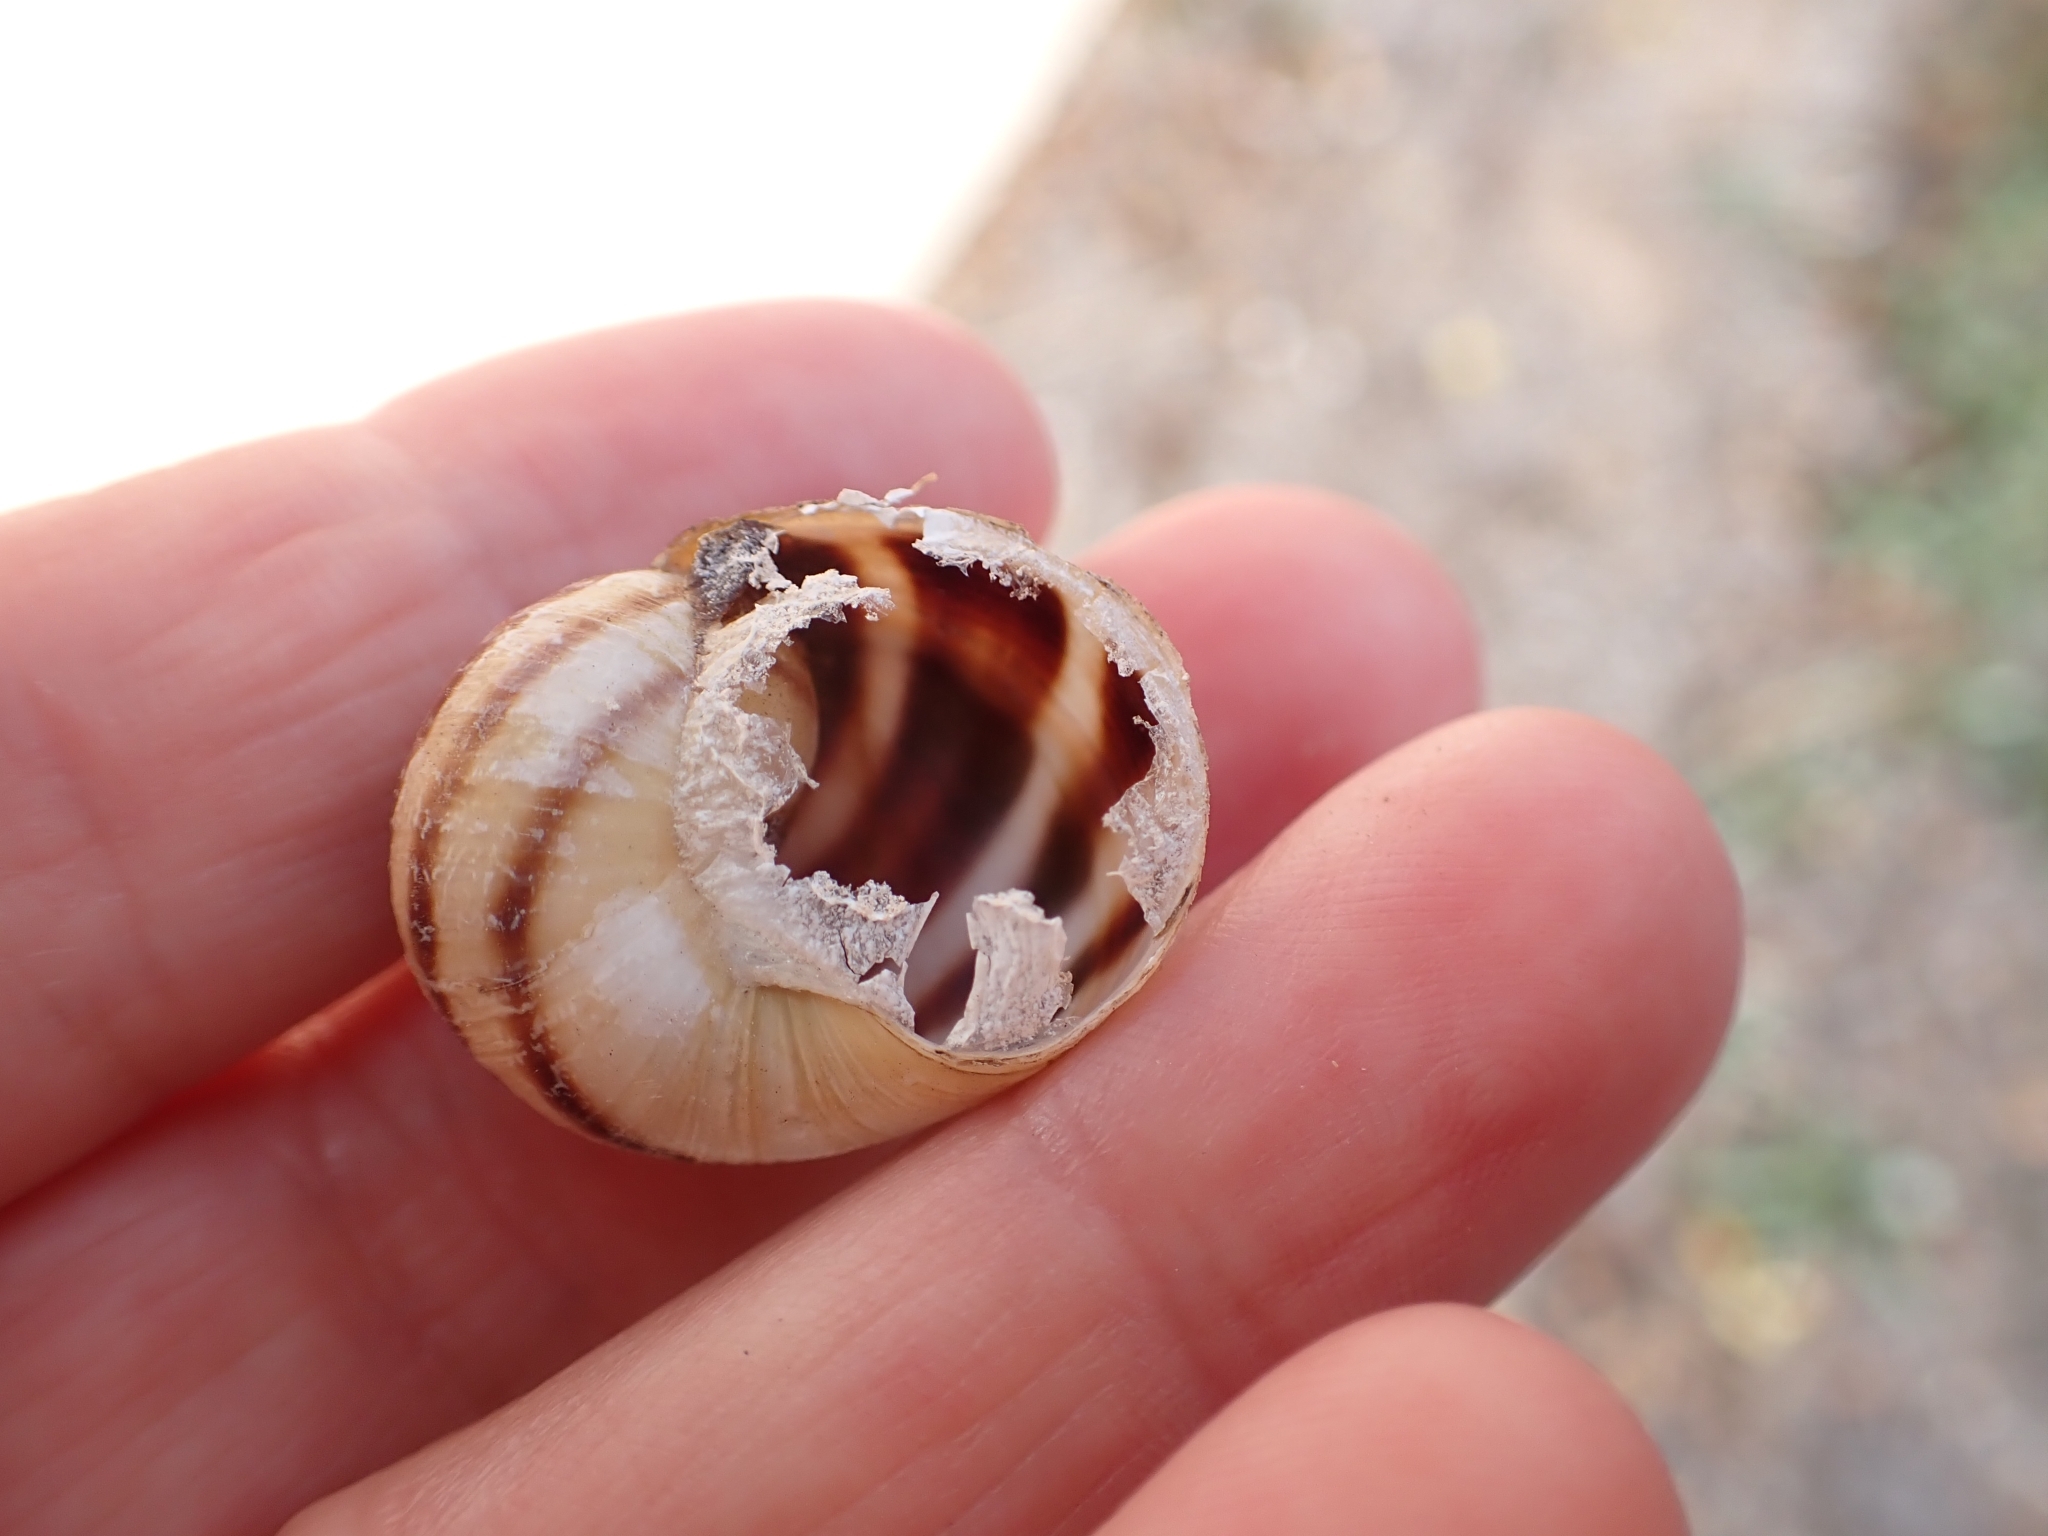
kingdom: Animalia
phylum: Mollusca
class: Gastropoda
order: Stylommatophora
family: Helicidae
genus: Cornu
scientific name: Cornu aspersum
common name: Brown garden snail
